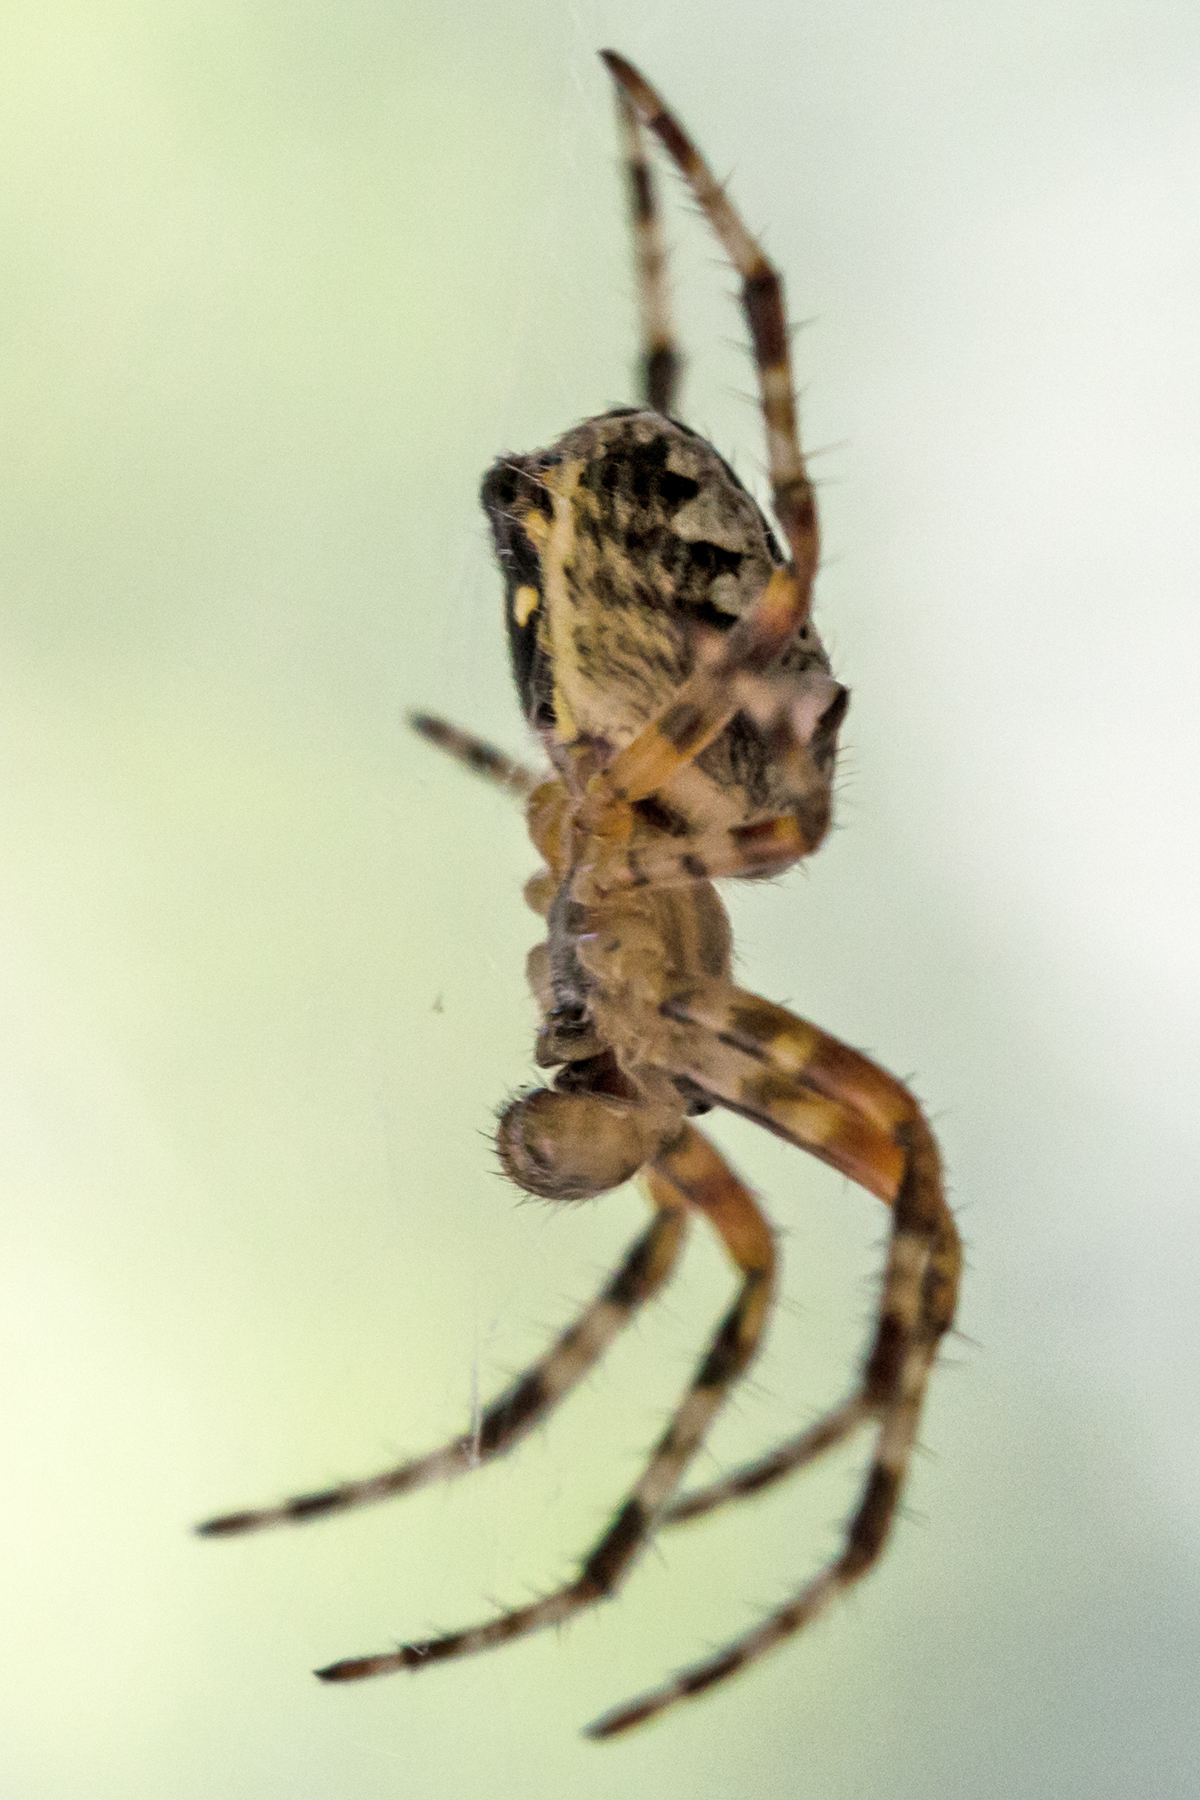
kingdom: Animalia
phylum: Arthropoda
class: Arachnida
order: Araneae
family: Araneidae
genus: Araneus
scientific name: Araneus nordmanni
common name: Nordmann's orbweaver
